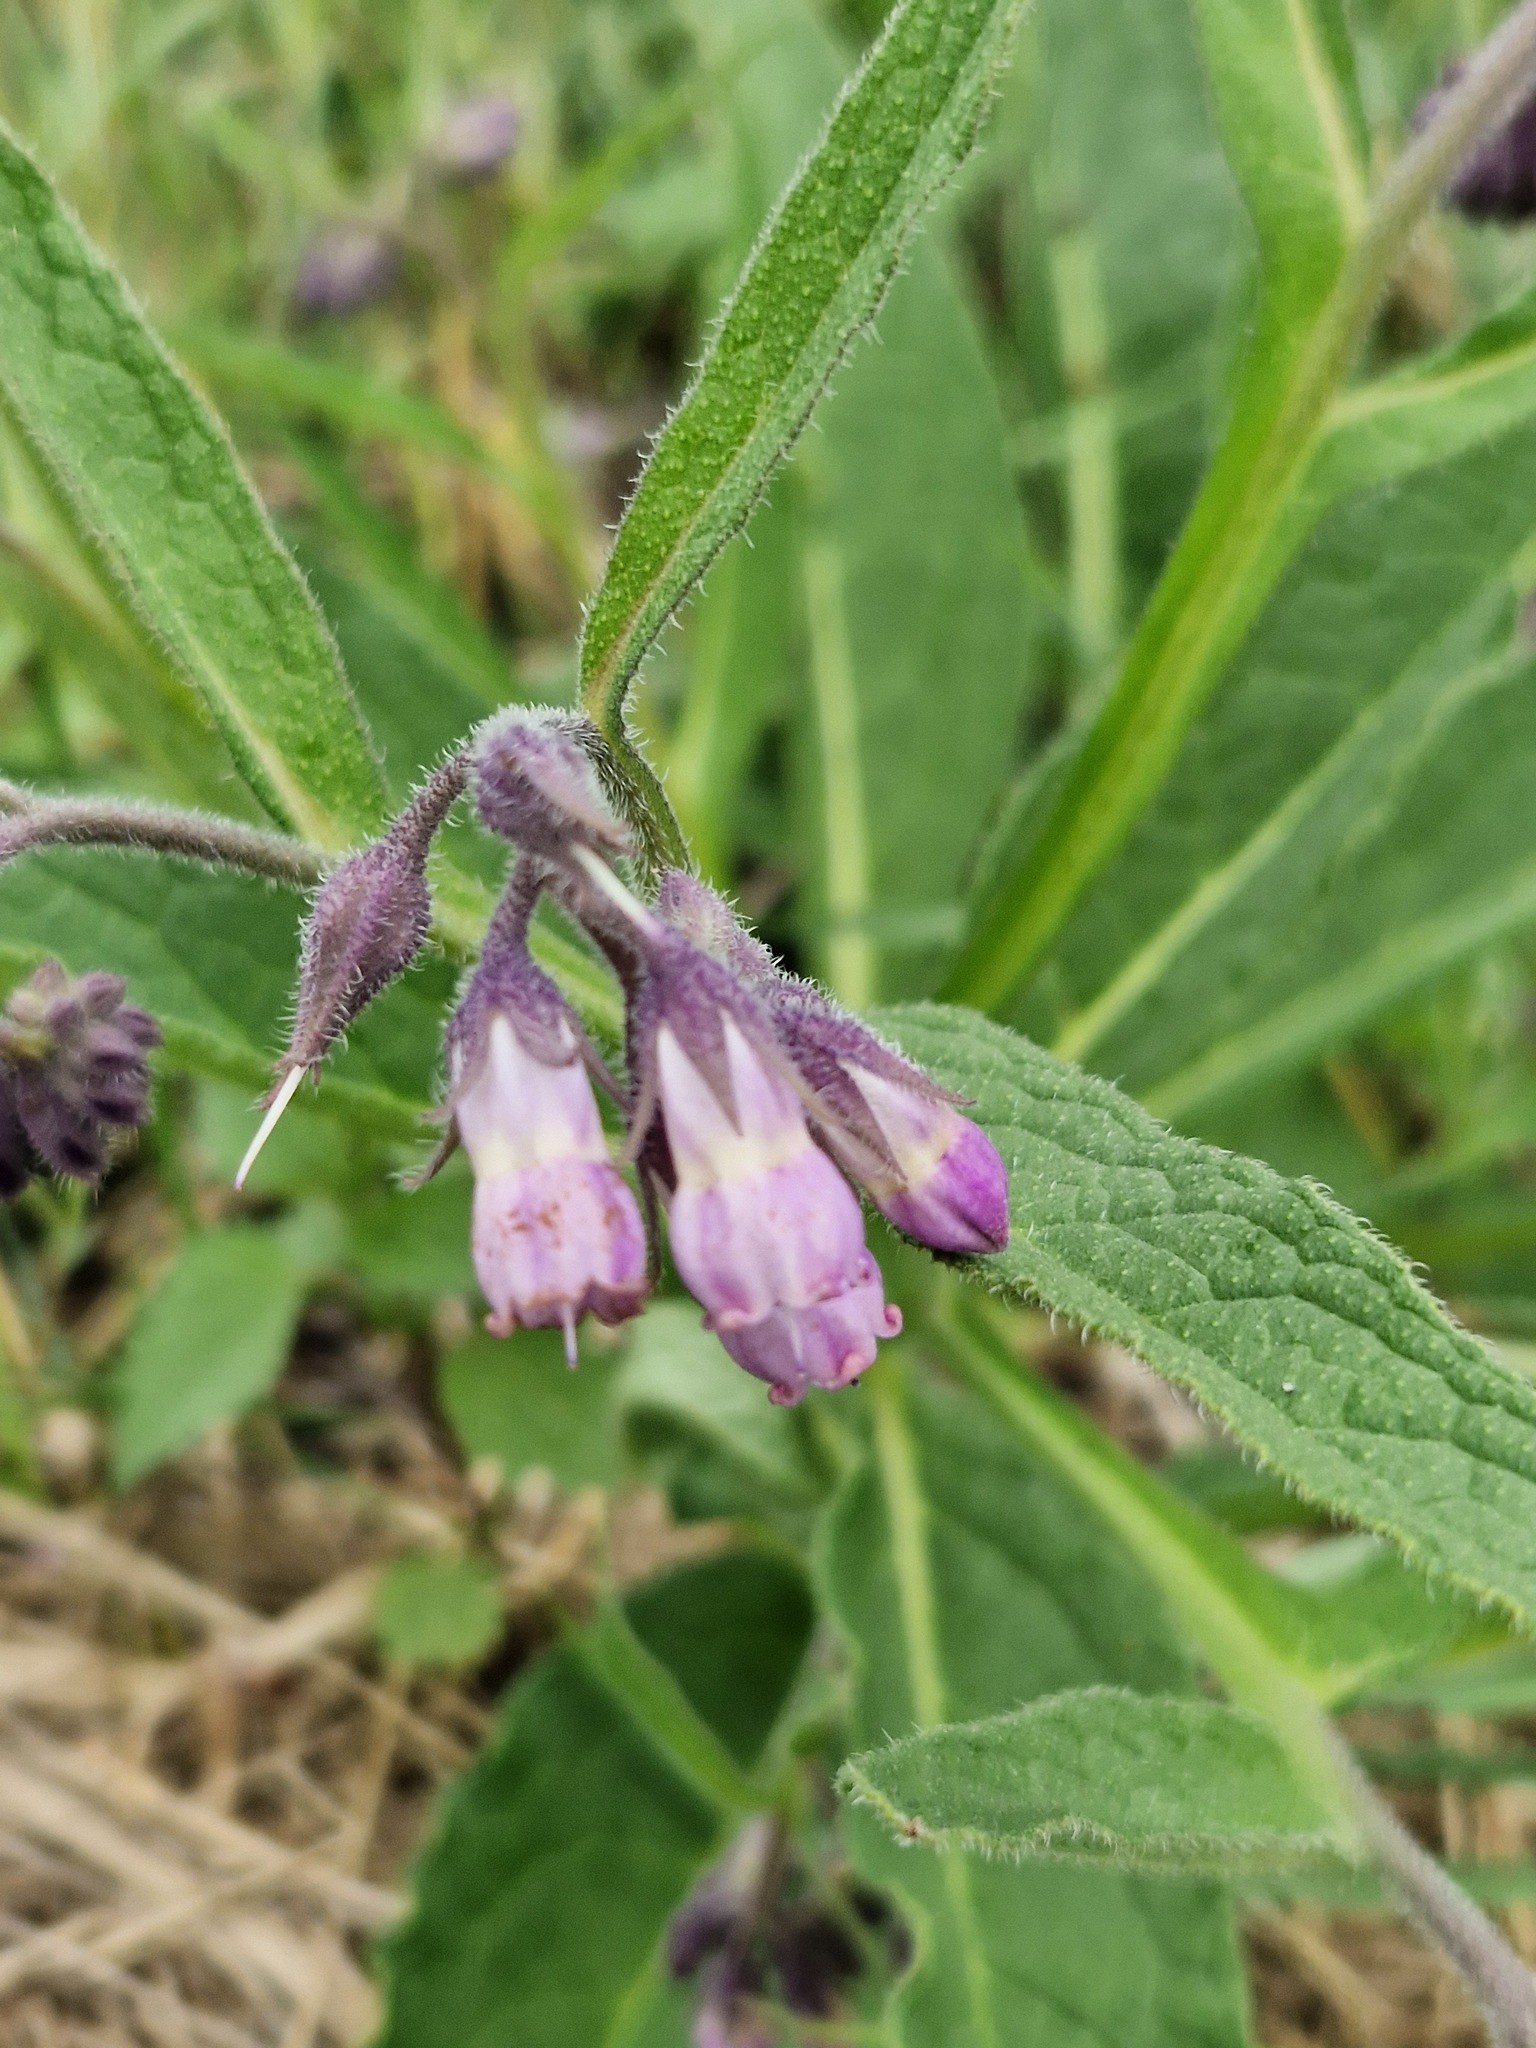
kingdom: Plantae
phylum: Tracheophyta
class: Magnoliopsida
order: Boraginales
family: Boraginaceae
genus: Symphytum
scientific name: Symphytum officinale
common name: Common comfrey
